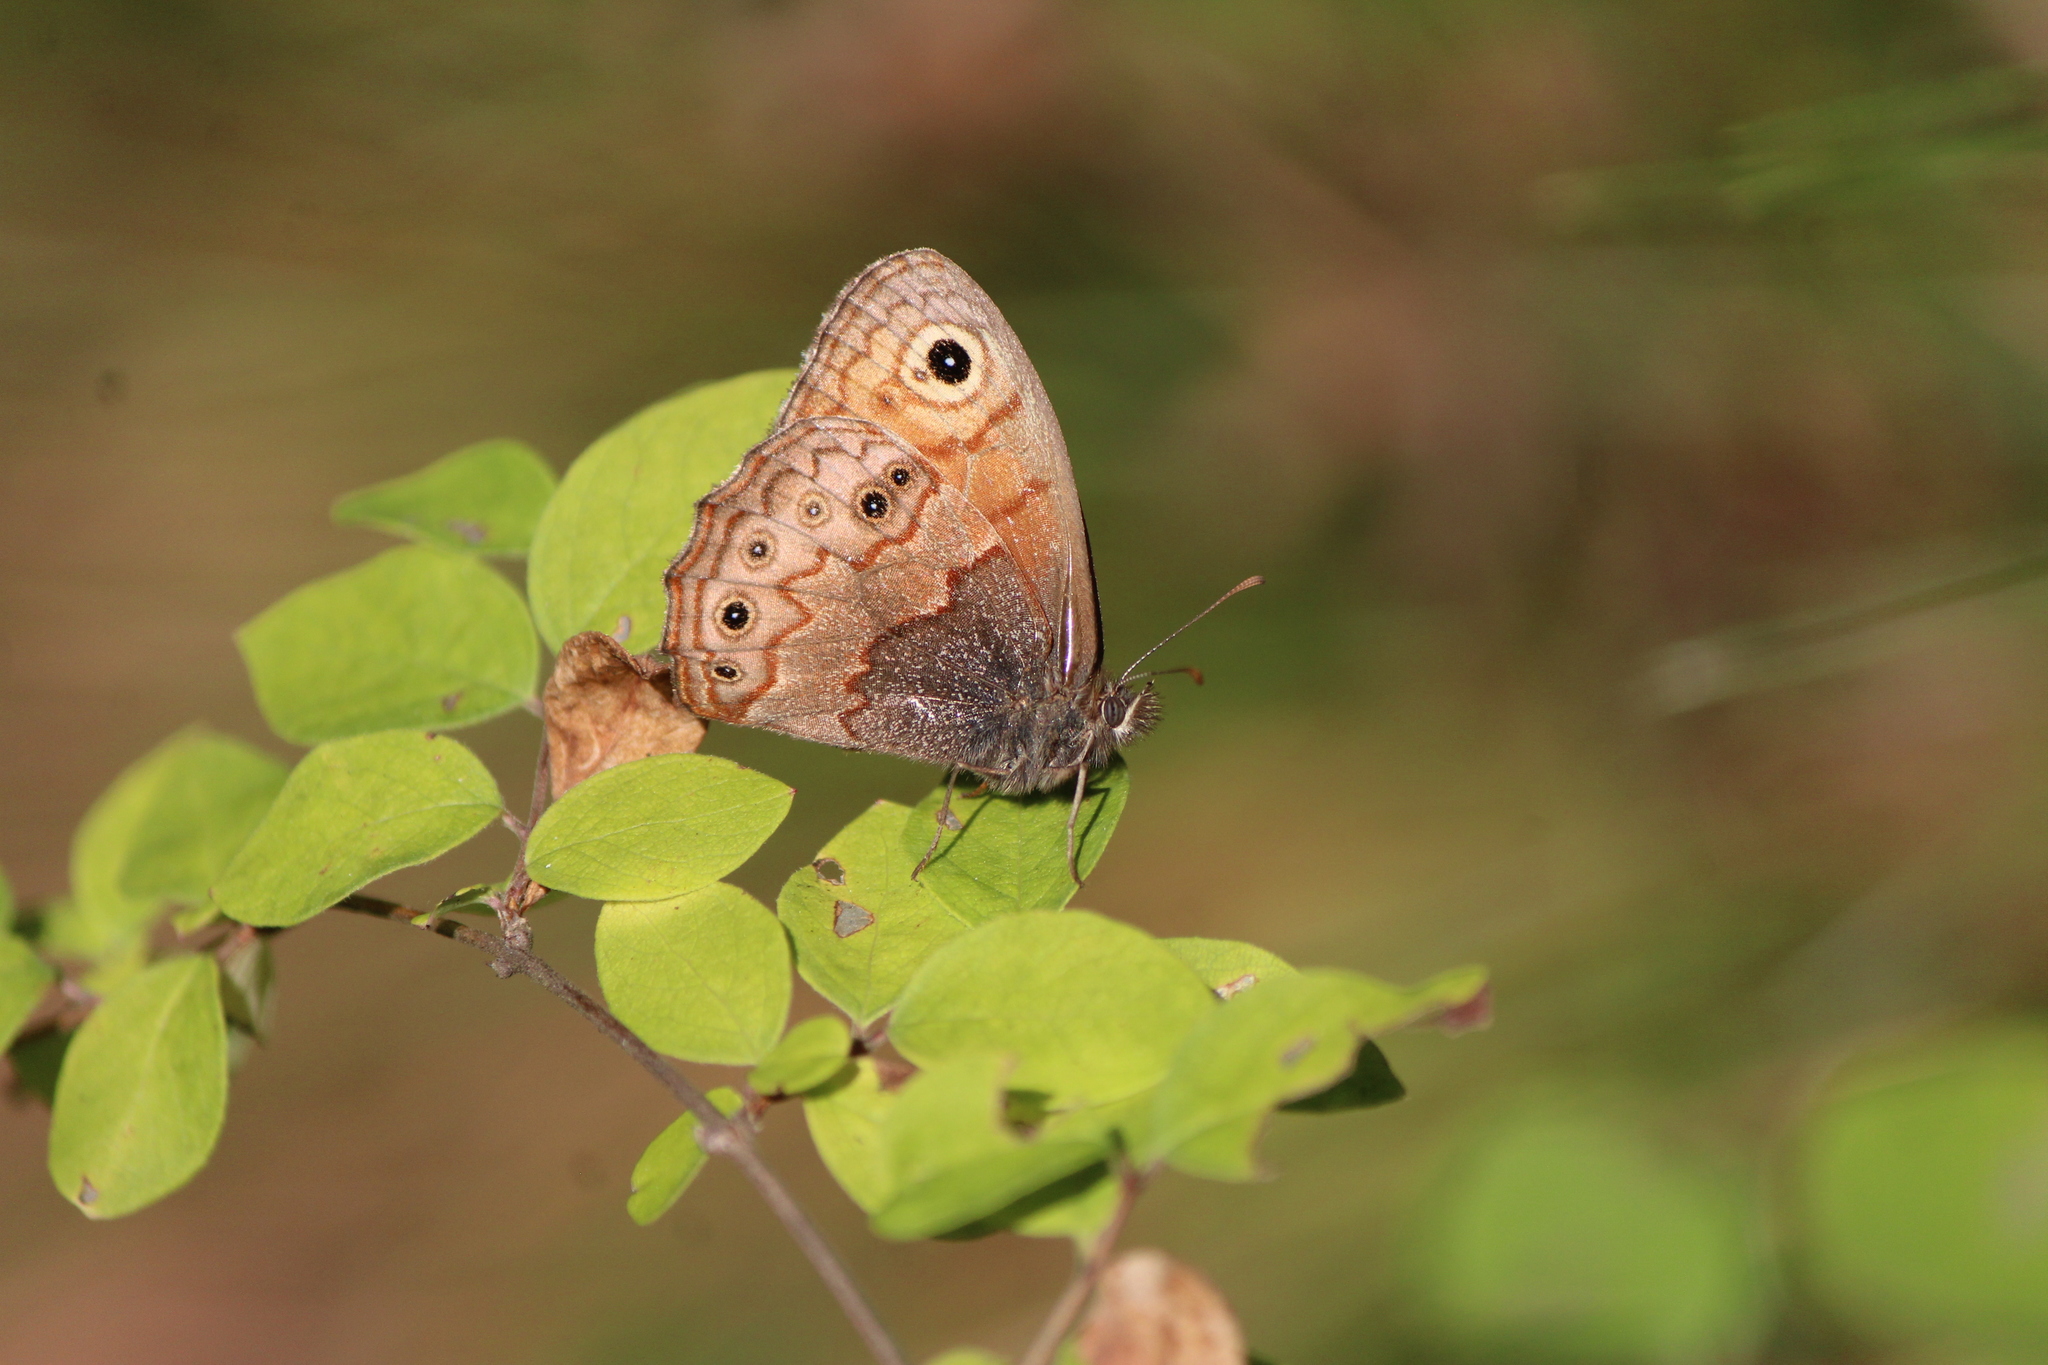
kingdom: Animalia
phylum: Arthropoda
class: Insecta
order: Lepidoptera
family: Nymphalidae
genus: Paramecera
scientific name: Paramecera xicaque
